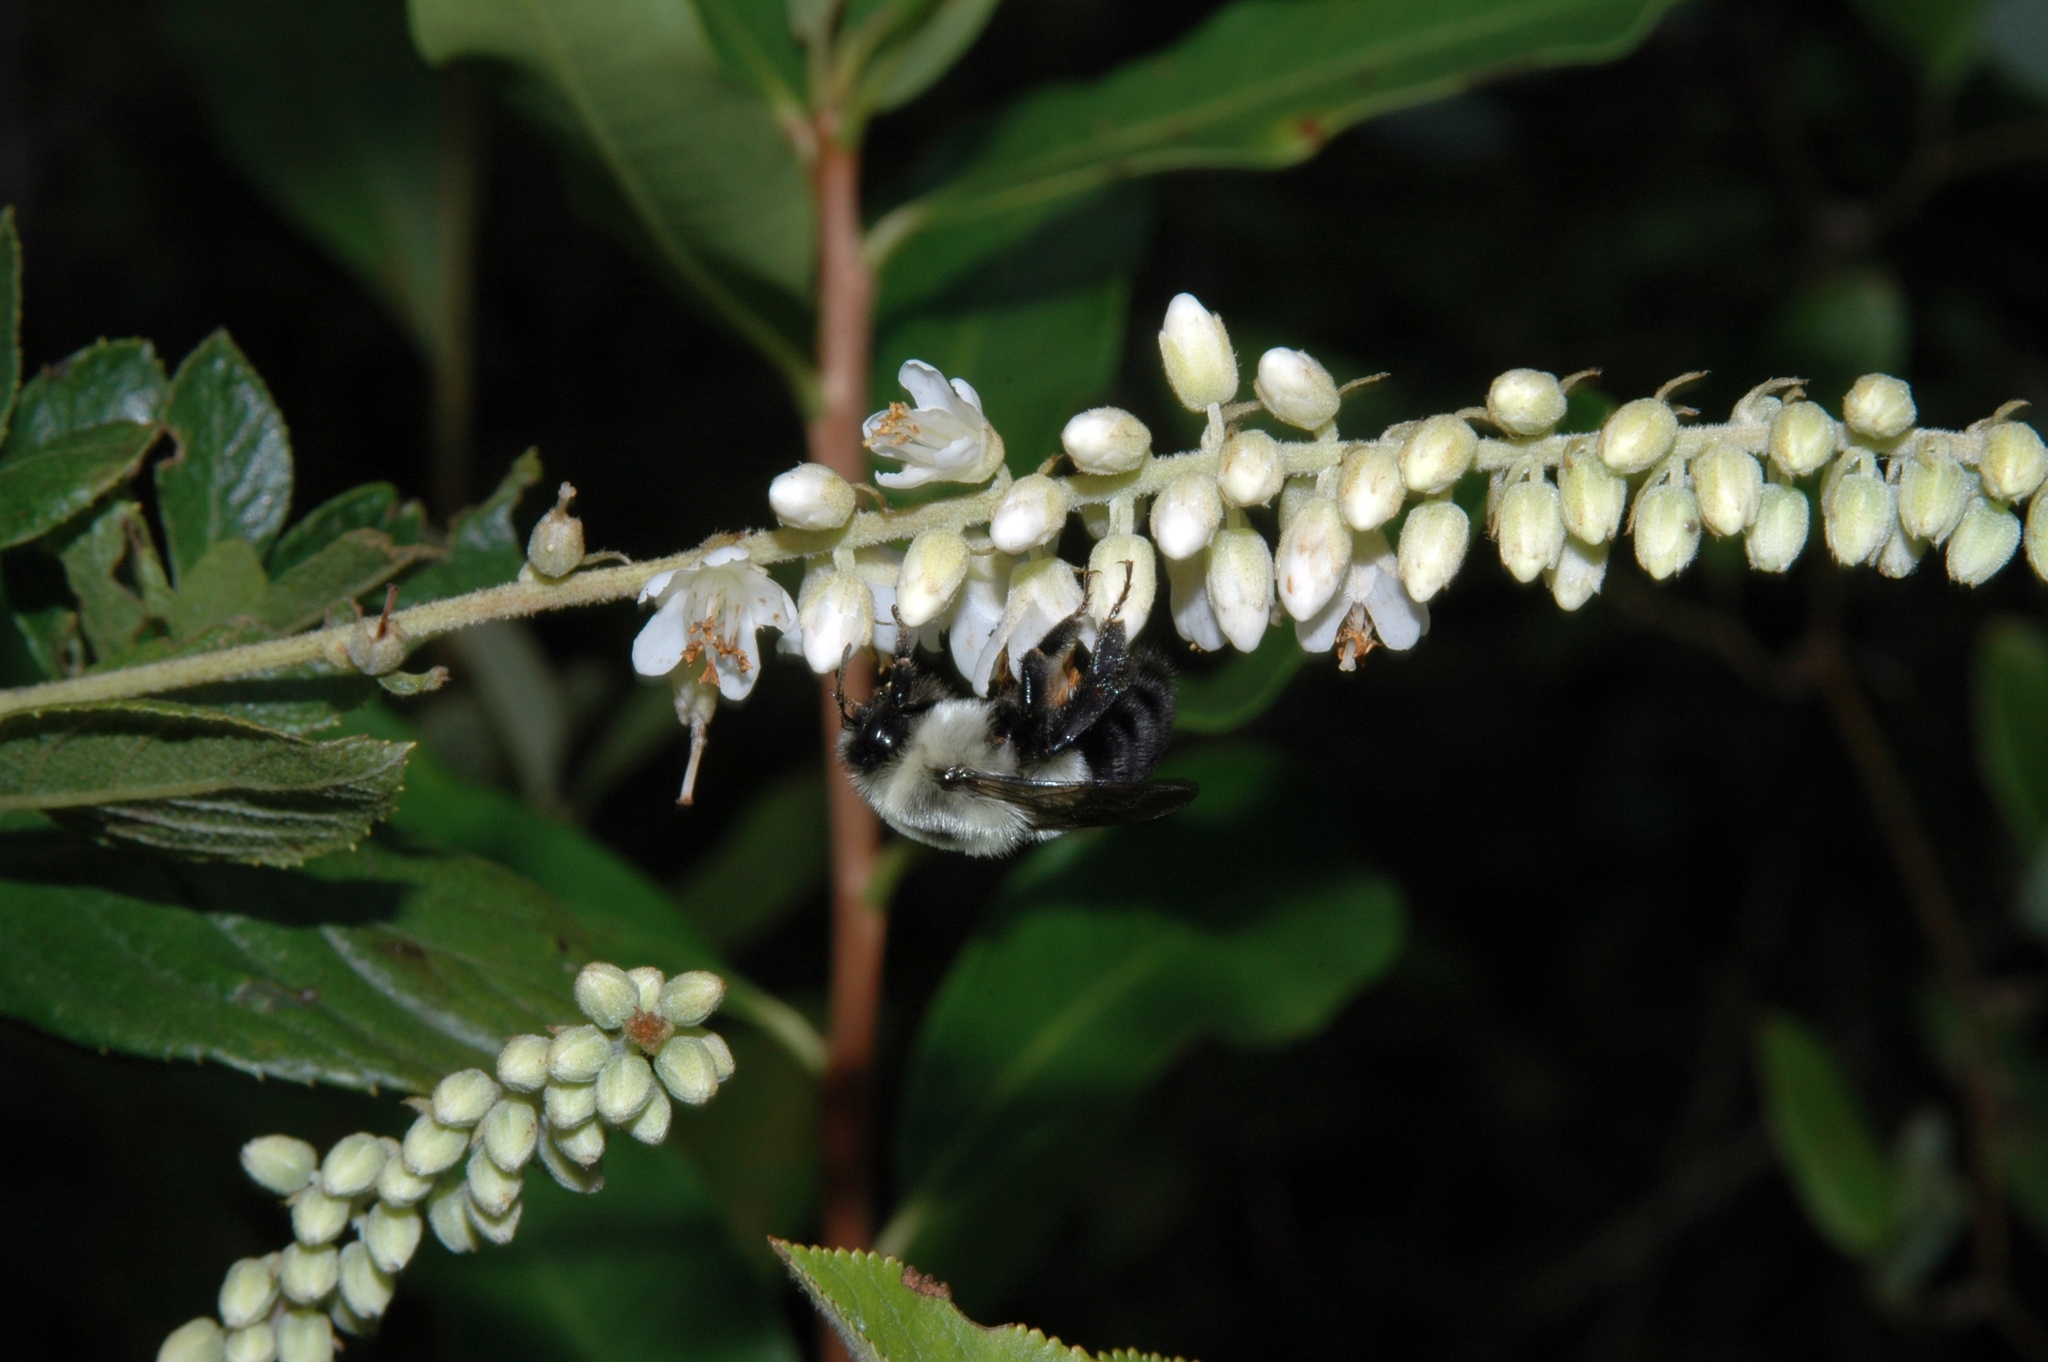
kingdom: Plantae
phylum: Tracheophyta
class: Magnoliopsida
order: Ericales
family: Clethraceae
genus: Clethra
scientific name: Clethra alnifolia
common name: Sweet pepperbush
